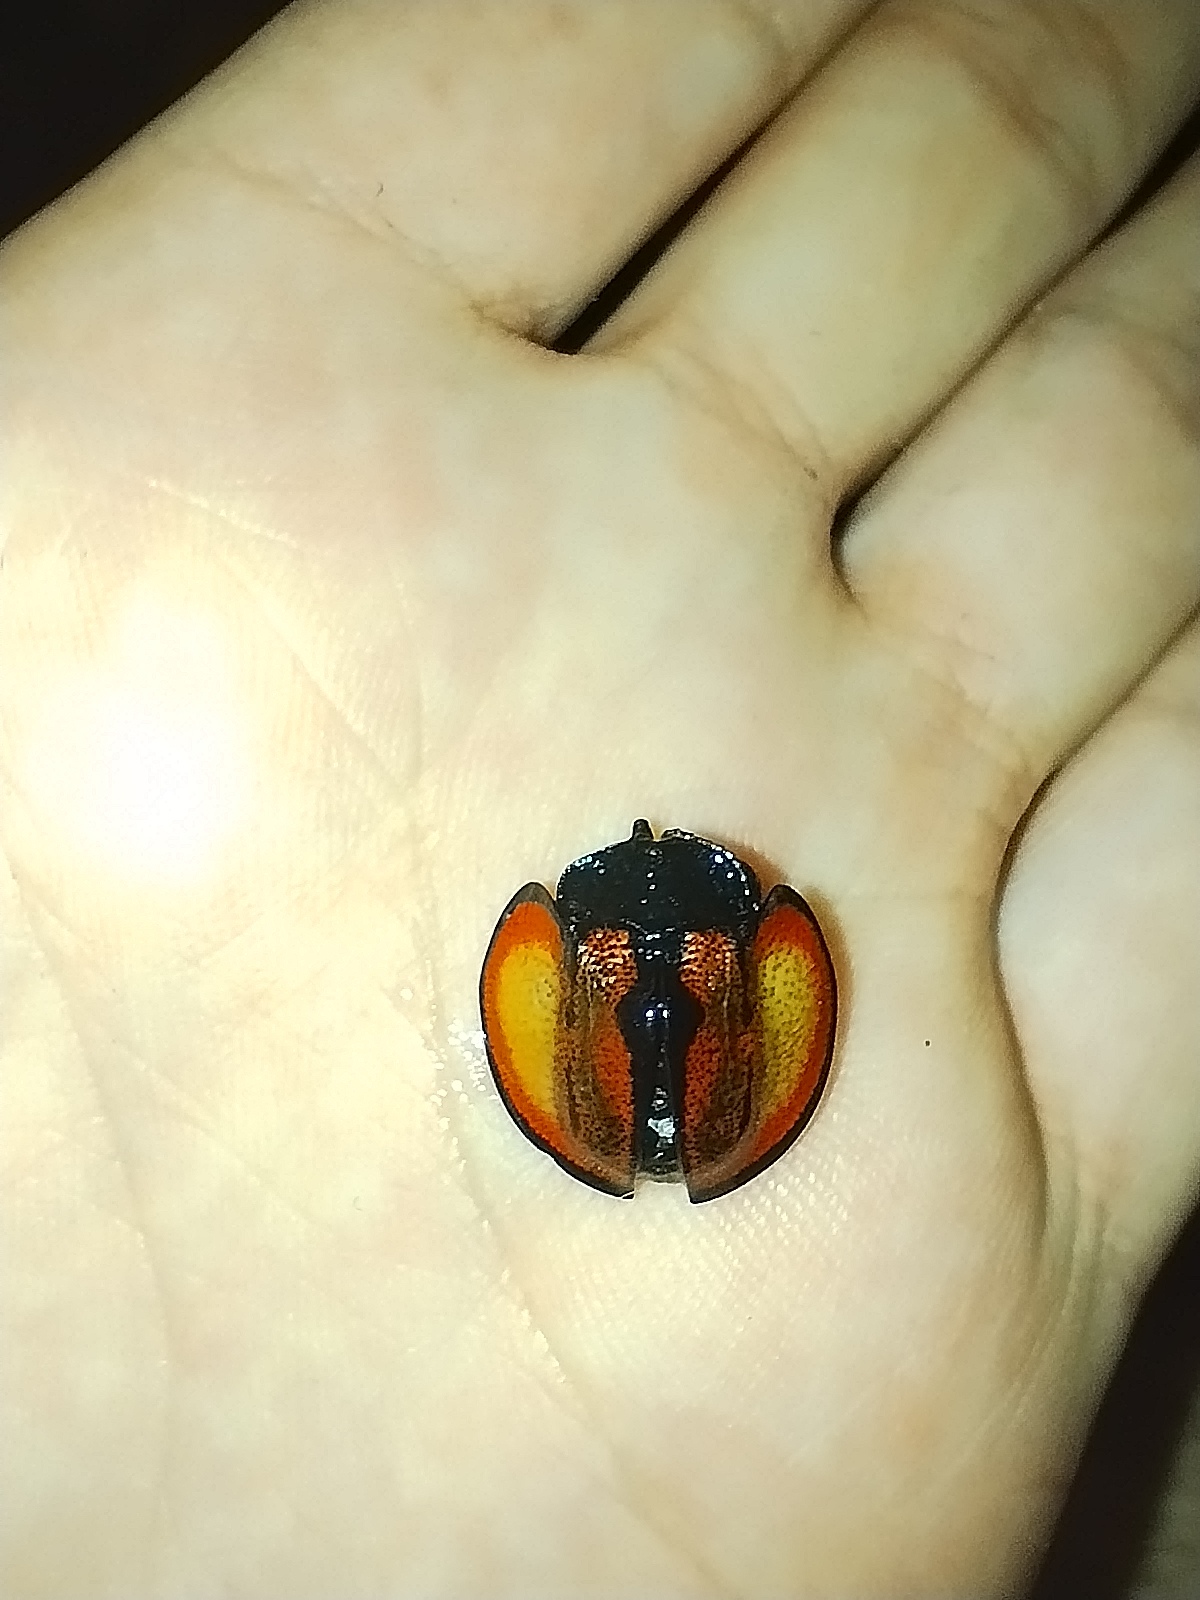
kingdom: Animalia
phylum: Arthropoda
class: Insecta
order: Coleoptera
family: Chrysomelidae
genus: Cyrtonota
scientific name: Cyrtonota balyi
